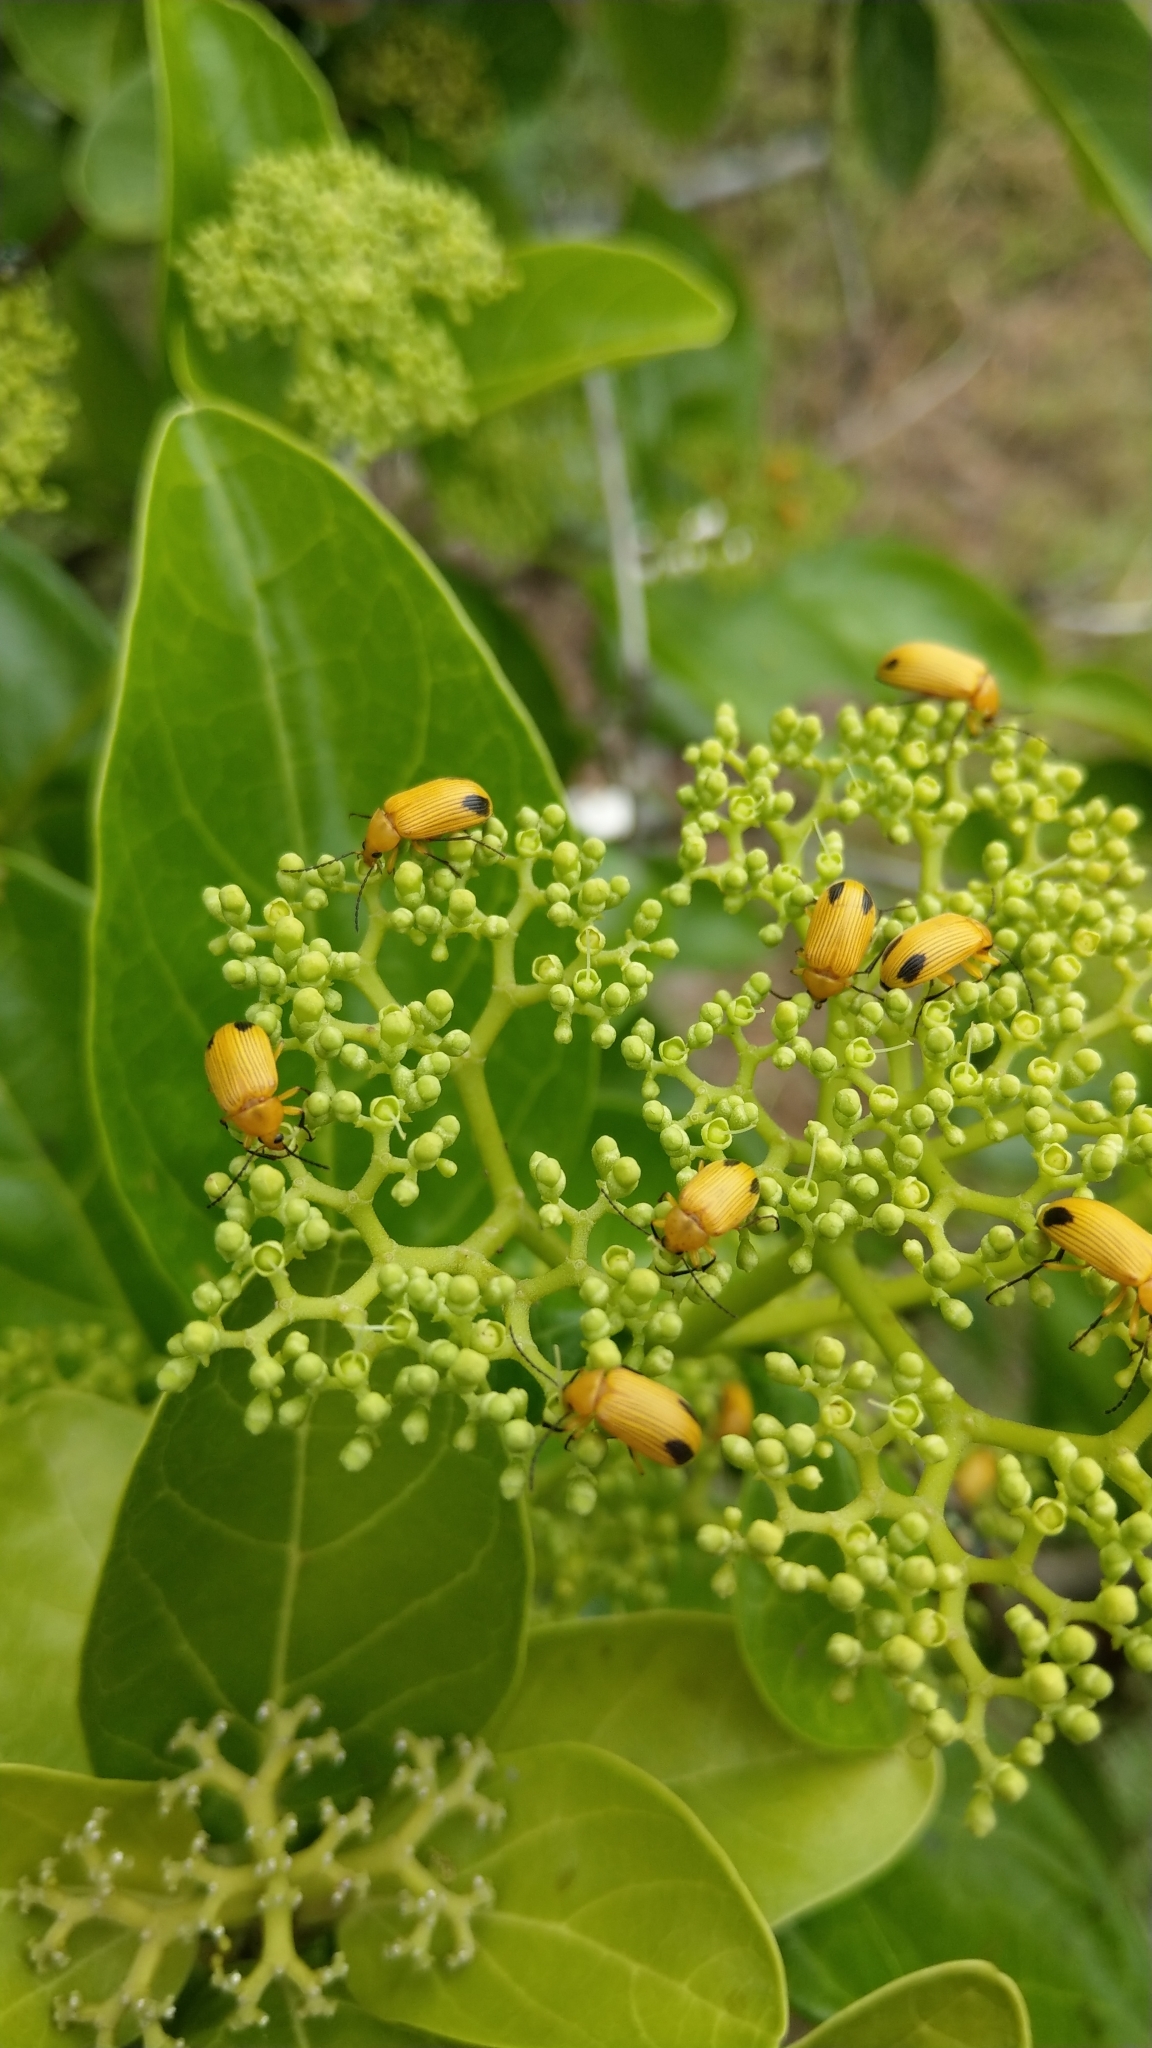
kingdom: Animalia
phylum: Arthropoda
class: Insecta
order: Coleoptera
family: Tenebrionidae
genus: Cistelomorpha
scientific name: Cistelomorpha bina
